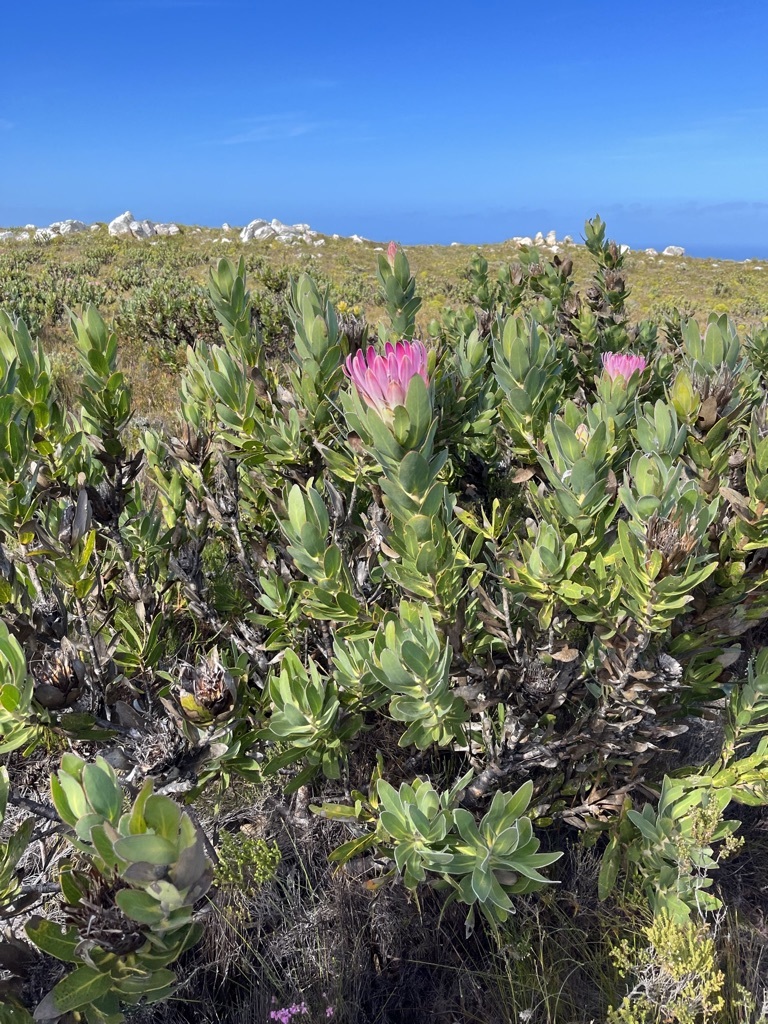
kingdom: Plantae
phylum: Tracheophyta
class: Magnoliopsida
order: Proteales
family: Proteaceae
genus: Protea
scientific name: Protea compacta
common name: Bot river protea
